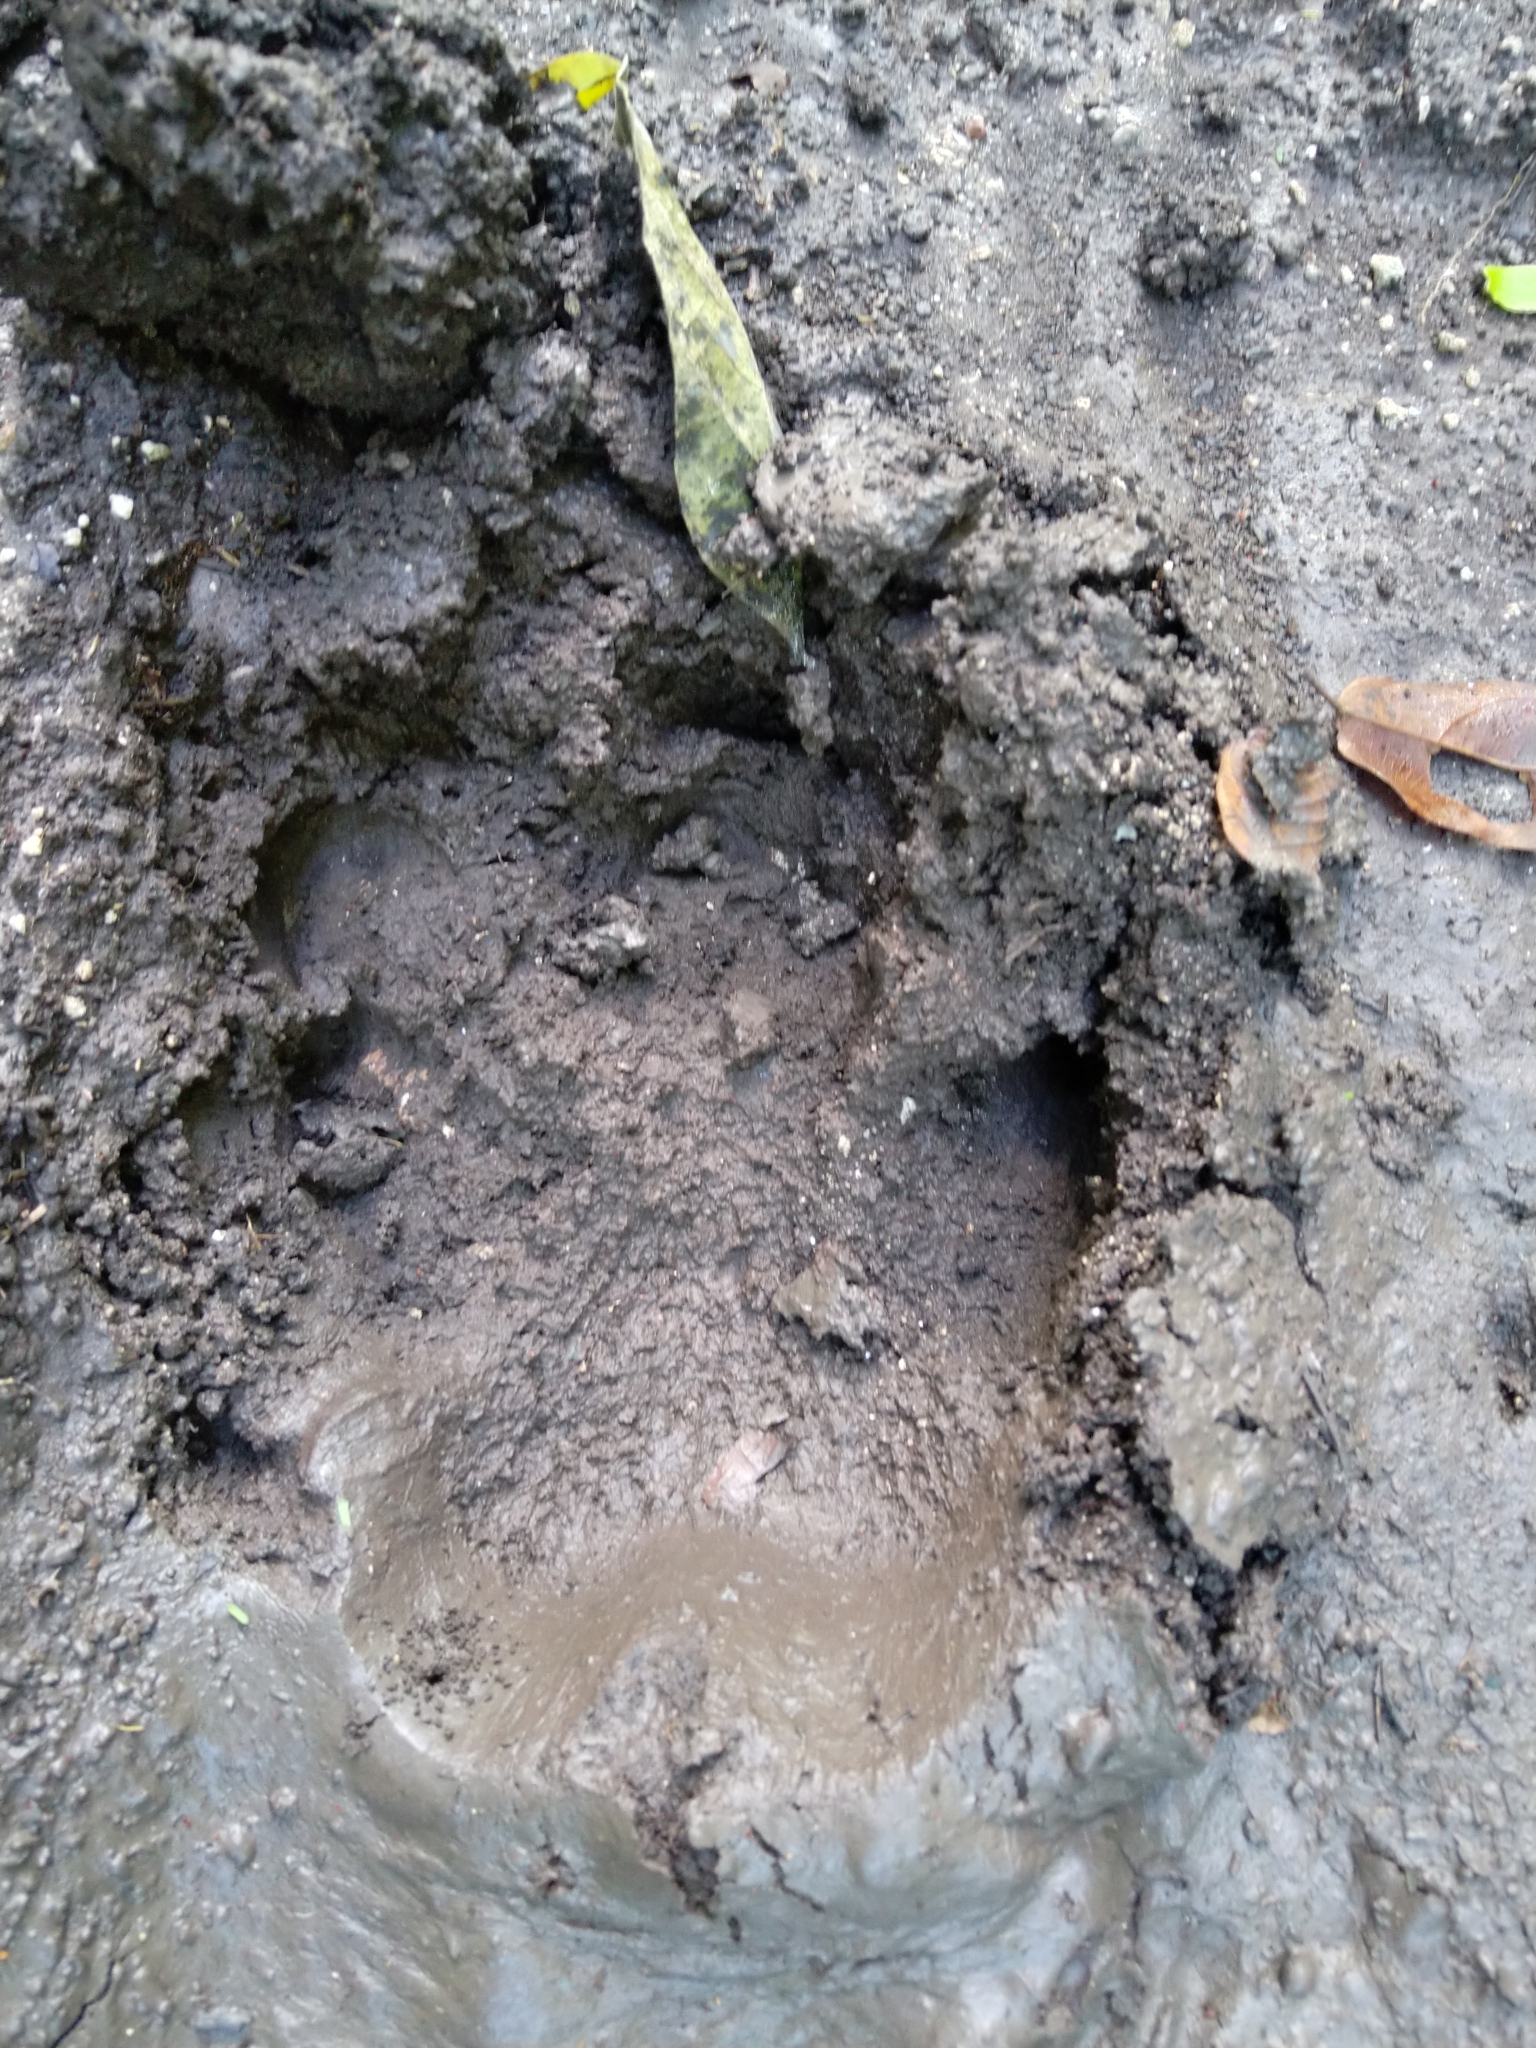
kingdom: Animalia
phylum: Chordata
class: Mammalia
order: Perissodactyla
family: Tapiridae
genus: Tapirella
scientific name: Tapirella bairdii
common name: Baird's tapir
